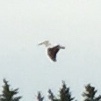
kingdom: Animalia
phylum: Chordata
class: Aves
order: Pelecaniformes
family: Pelecanidae
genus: Pelecanus
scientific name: Pelecanus erythrorhynchos
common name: American white pelican
